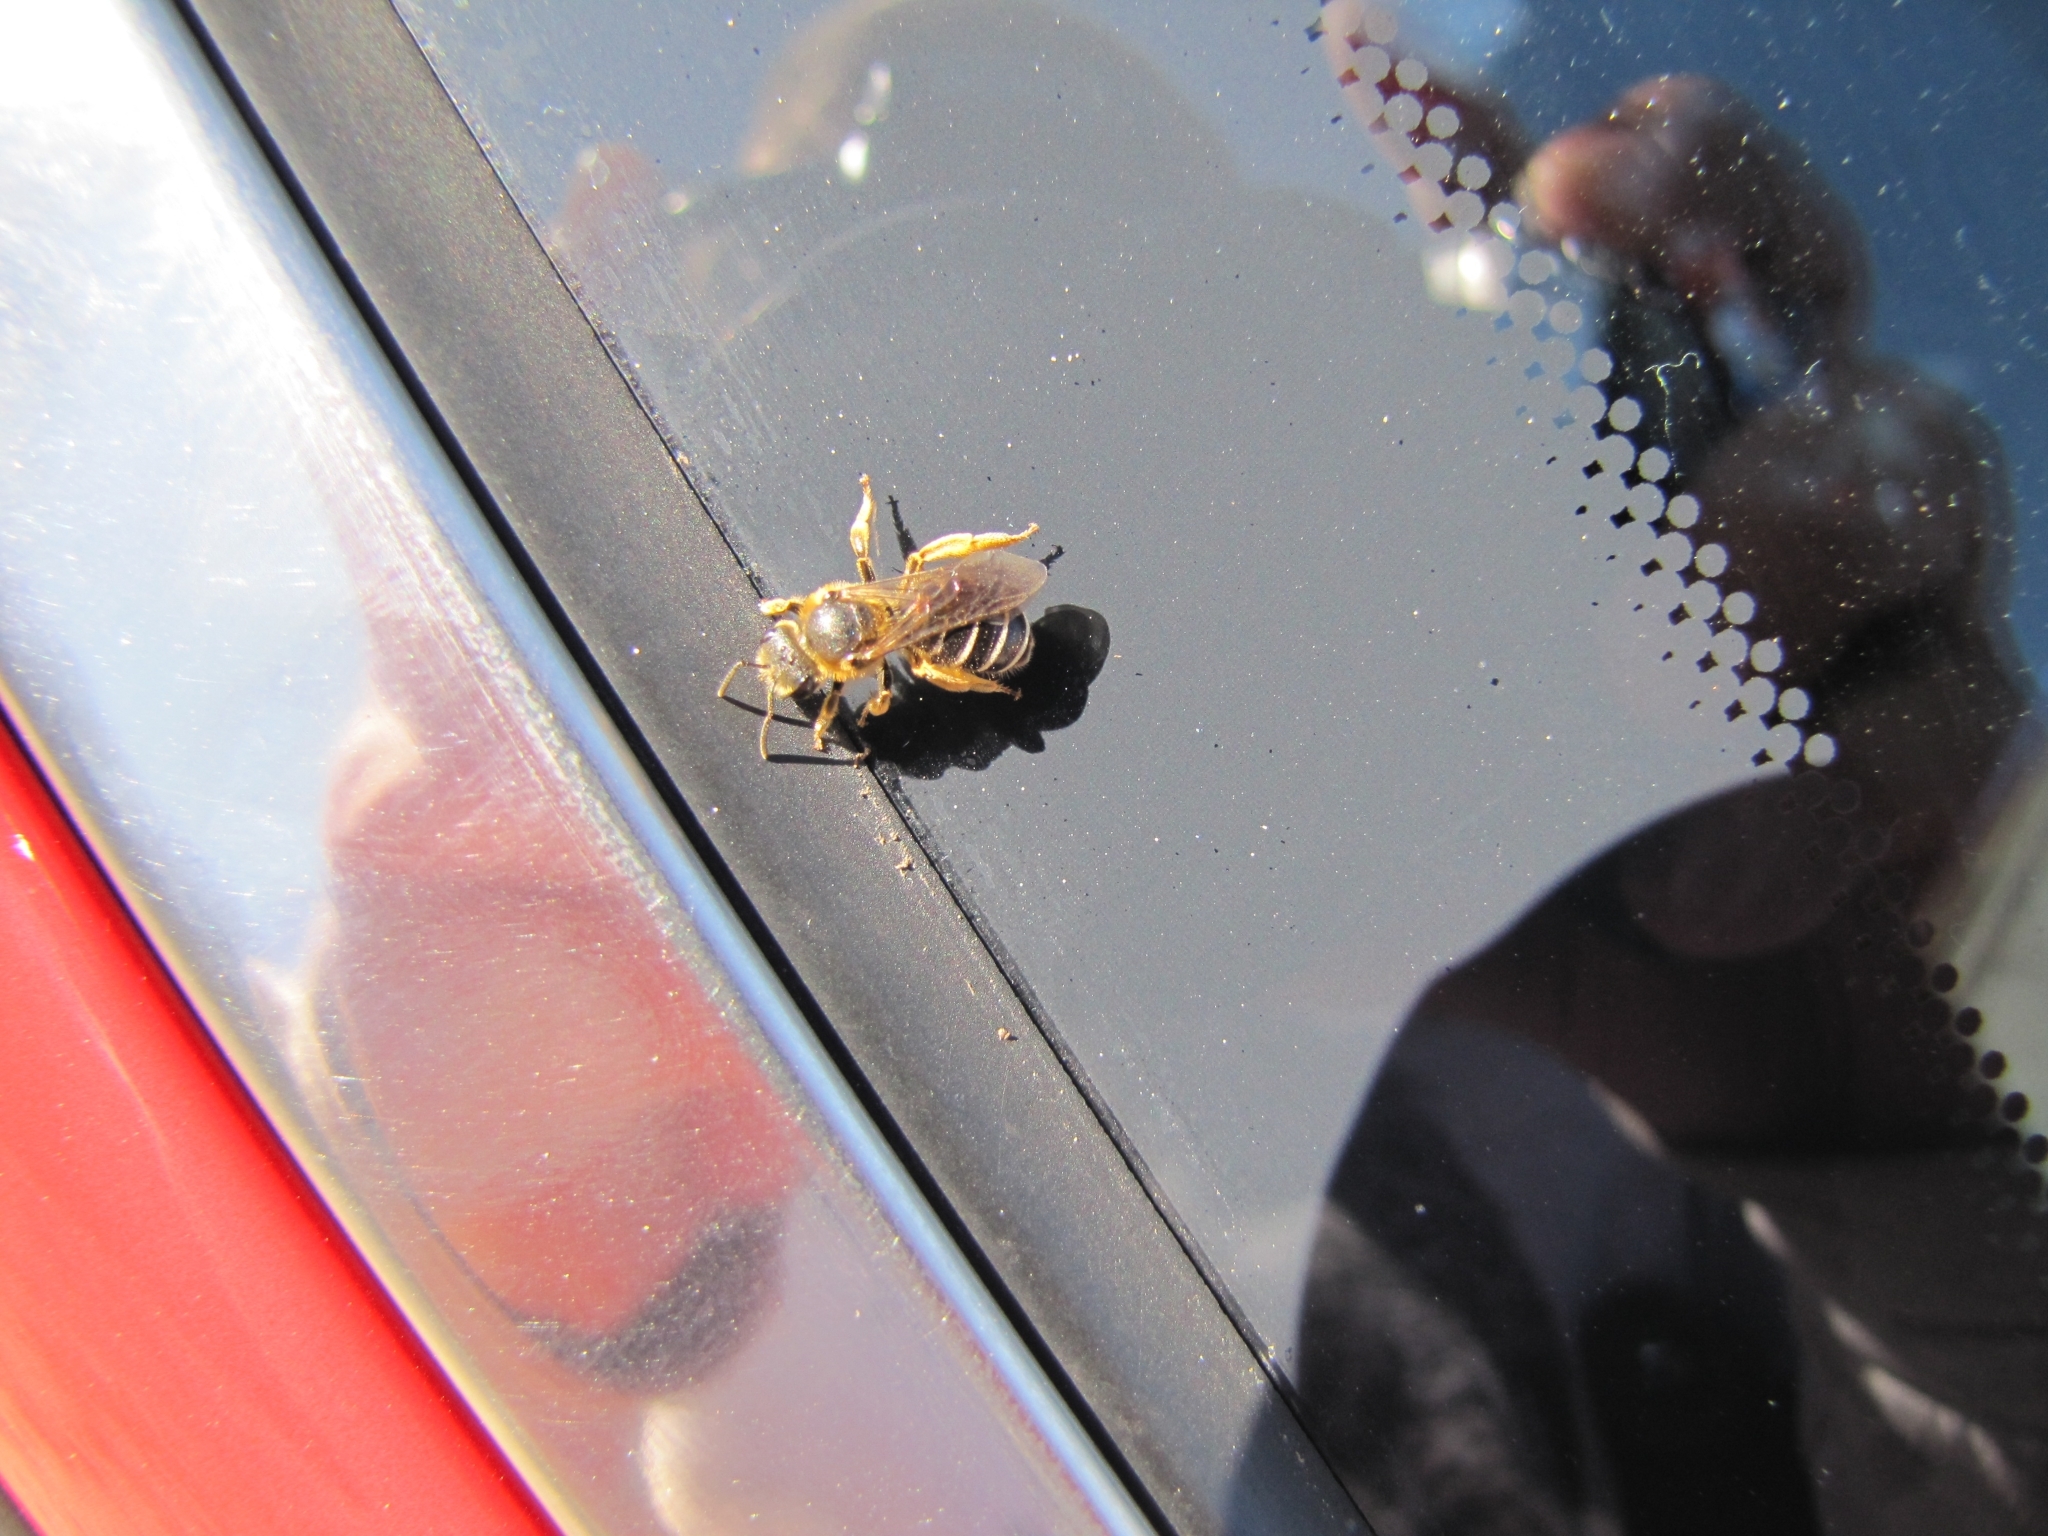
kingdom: Animalia
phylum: Arthropoda
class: Insecta
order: Hymenoptera
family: Halictidae
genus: Halictus
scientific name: Halictus rubicundus
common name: Orange-legged furrow bee
